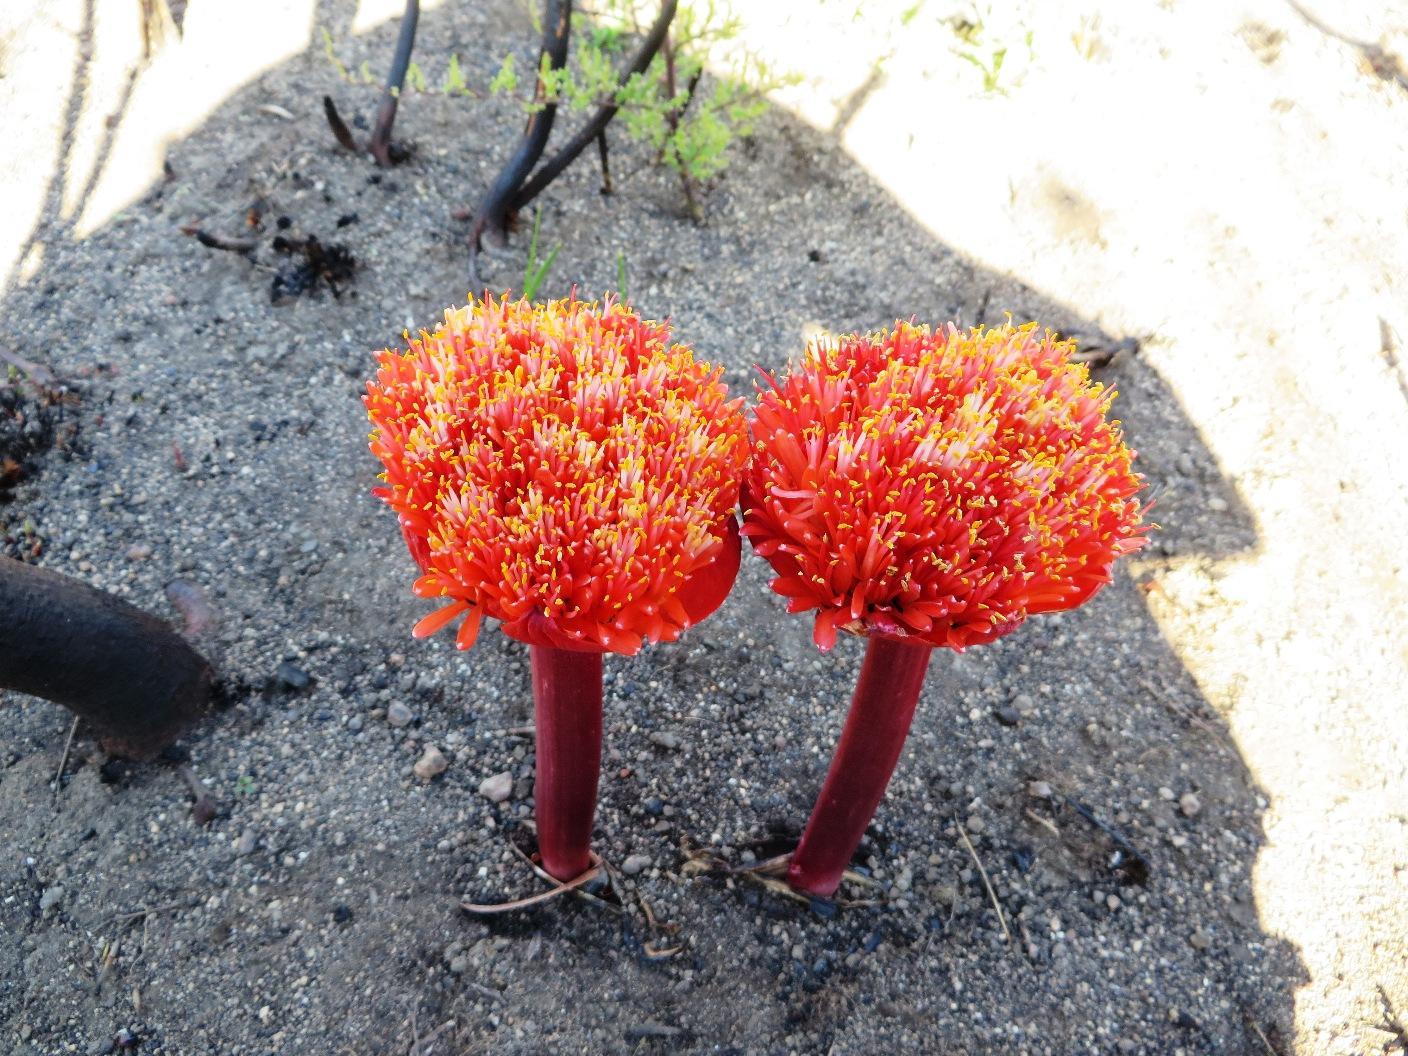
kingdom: Plantae
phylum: Tracheophyta
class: Liliopsida
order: Asparagales
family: Amaryllidaceae
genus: Haemanthus
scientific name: Haemanthus sanguineus
